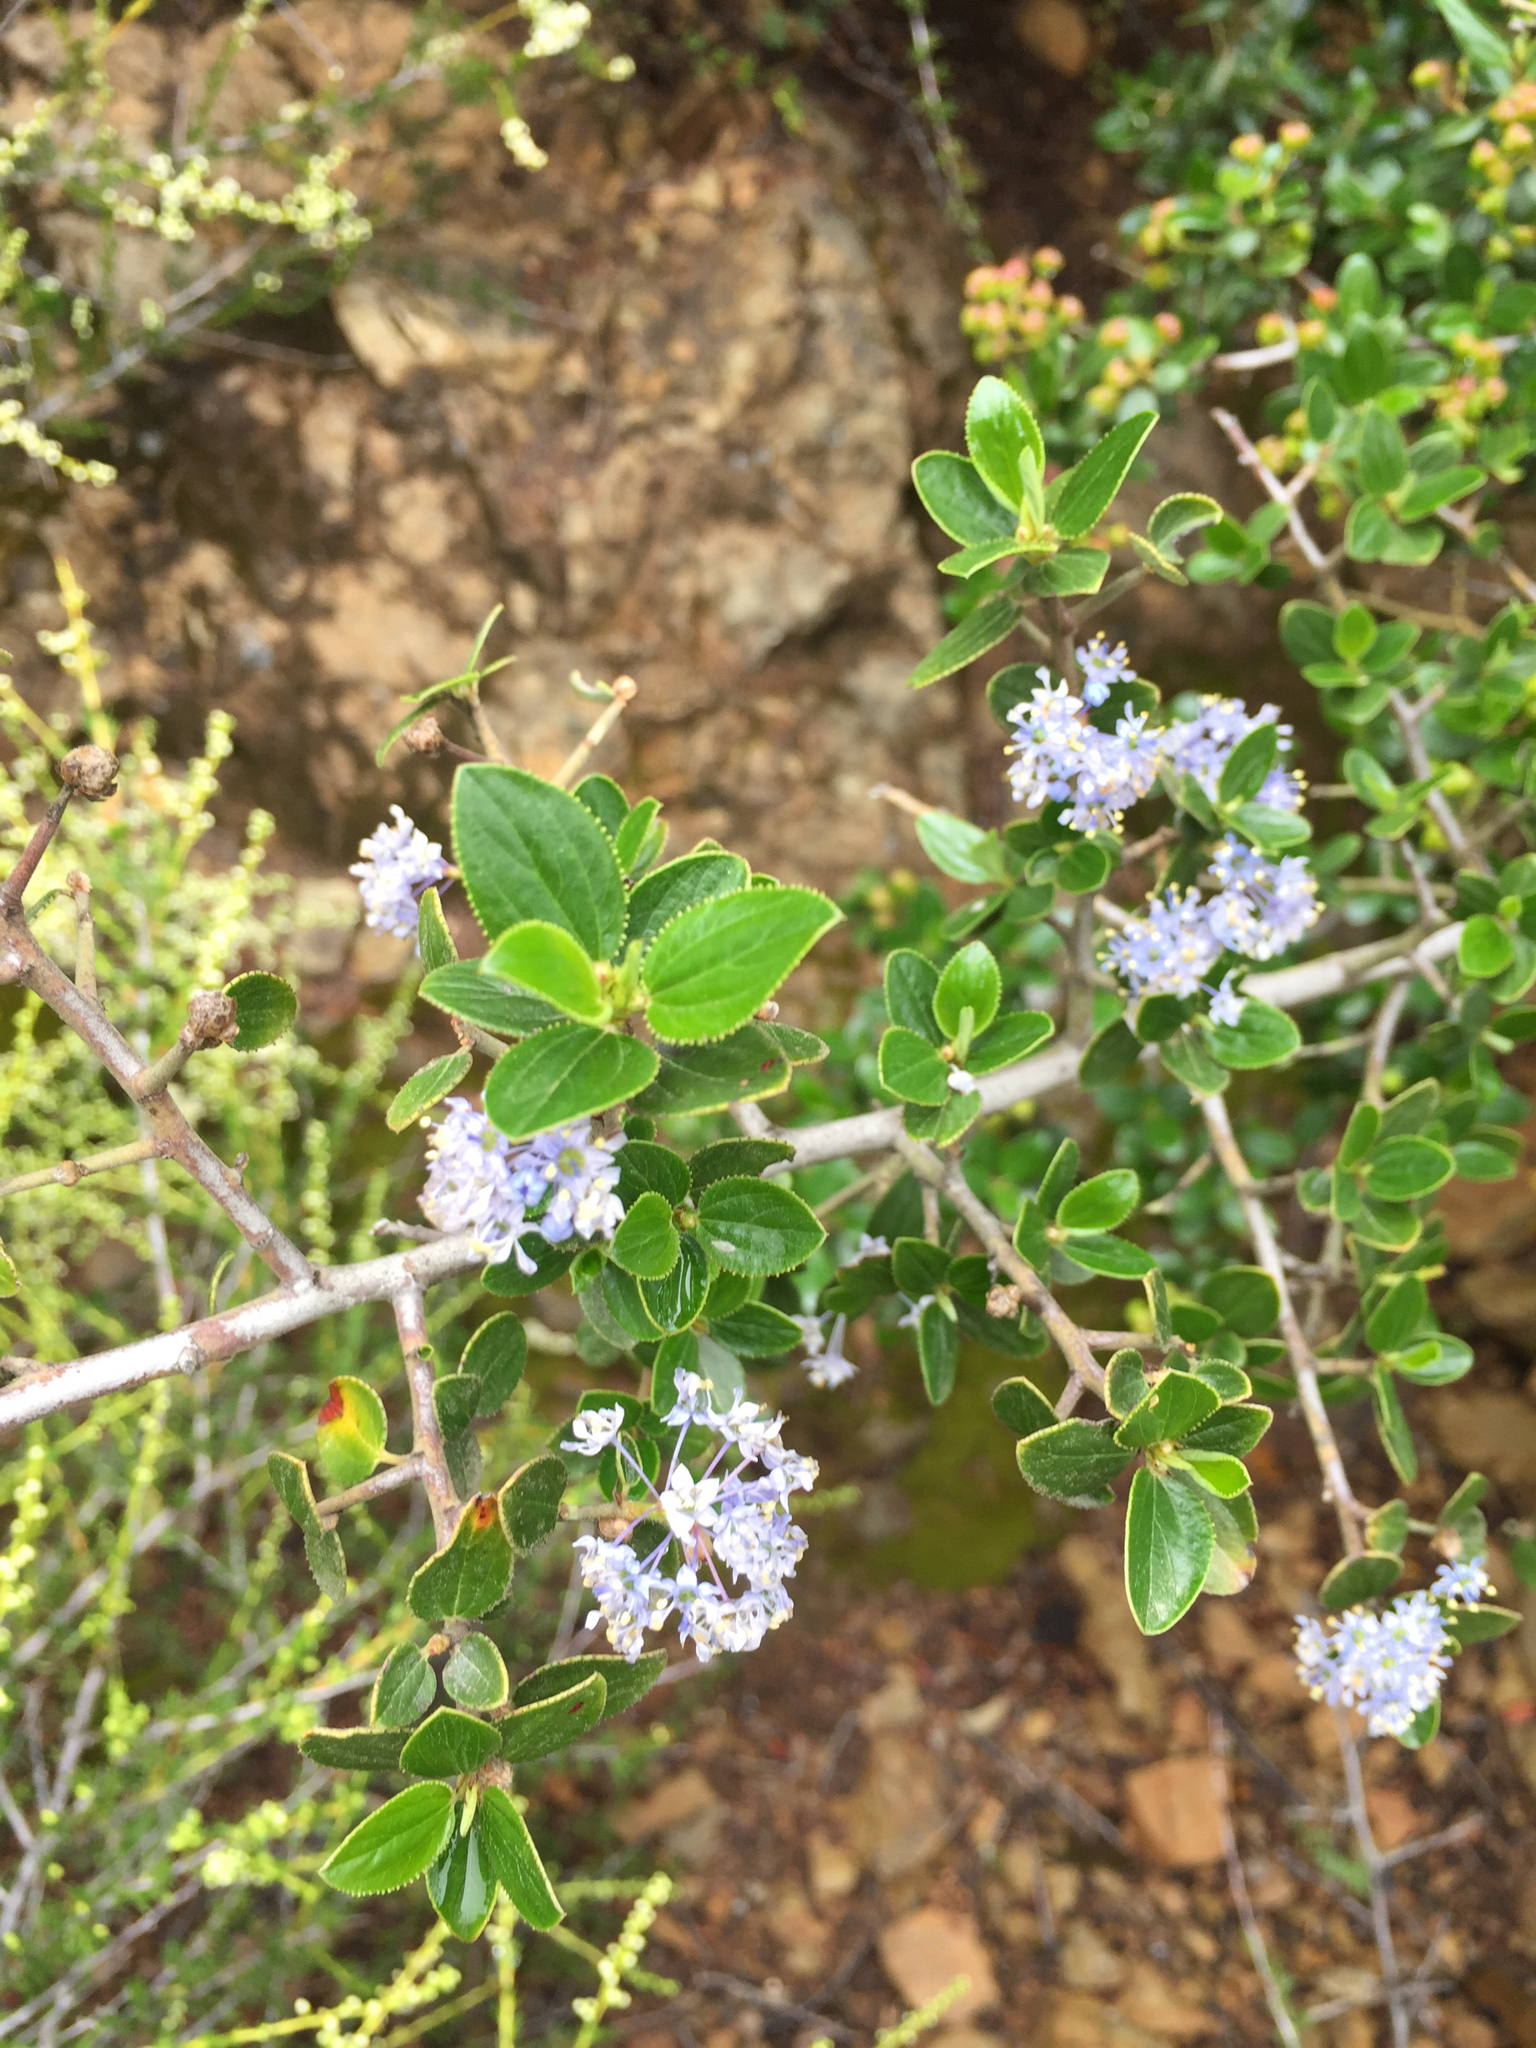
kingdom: Plantae
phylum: Tracheophyta
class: Magnoliopsida
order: Rosales
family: Rhamnaceae
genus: Ceanothus
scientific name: Ceanothus oliganthus
